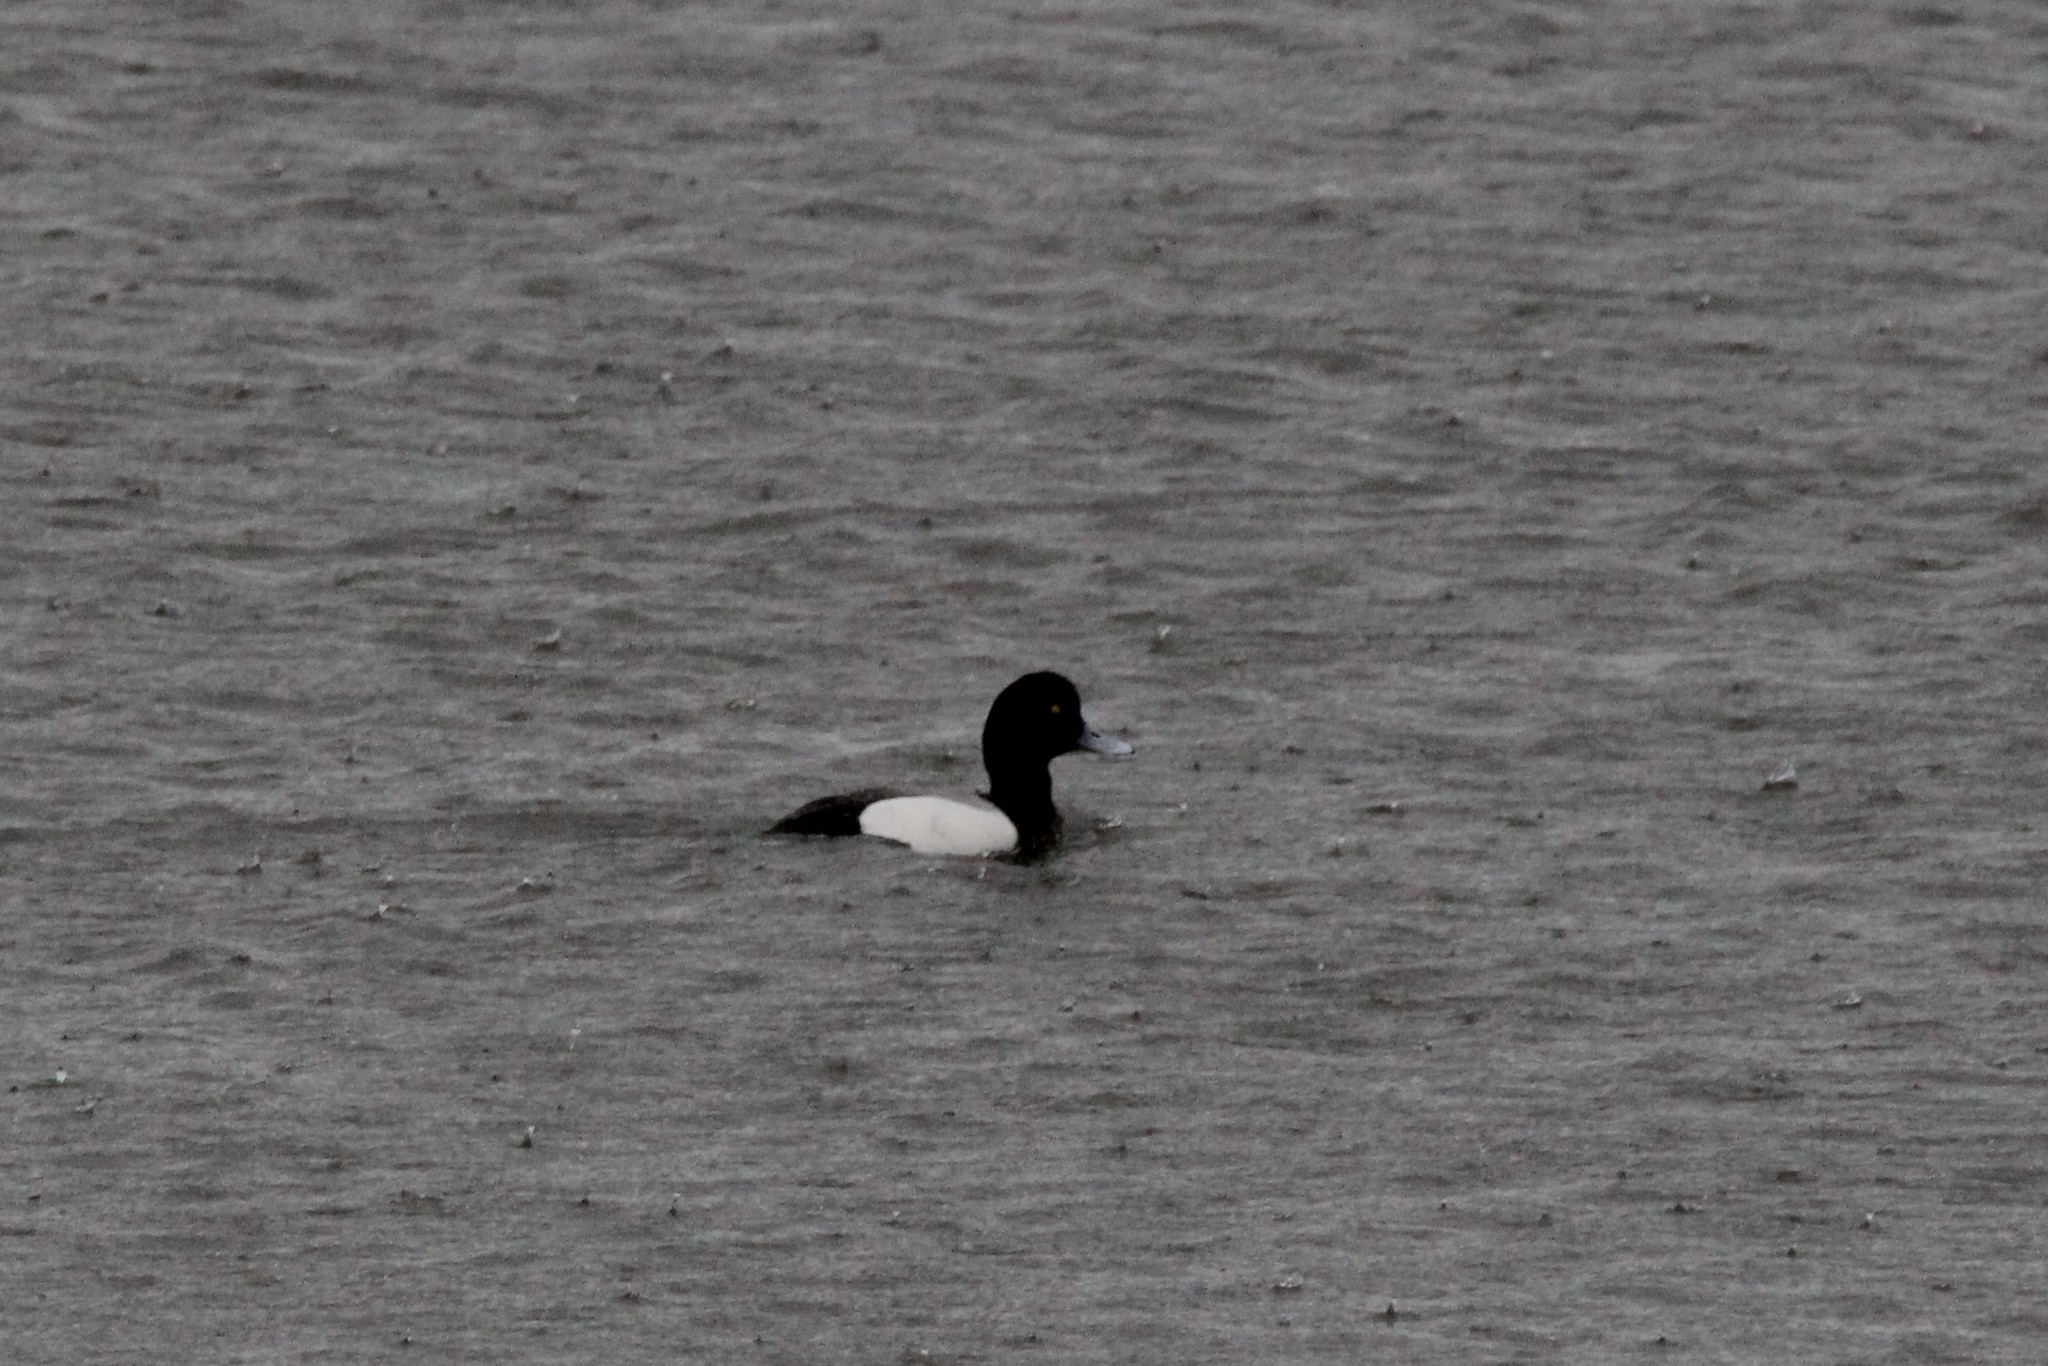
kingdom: Animalia
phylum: Chordata
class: Aves
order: Anseriformes
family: Anatidae
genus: Aythya
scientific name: Aythya marila
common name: Greater scaup
